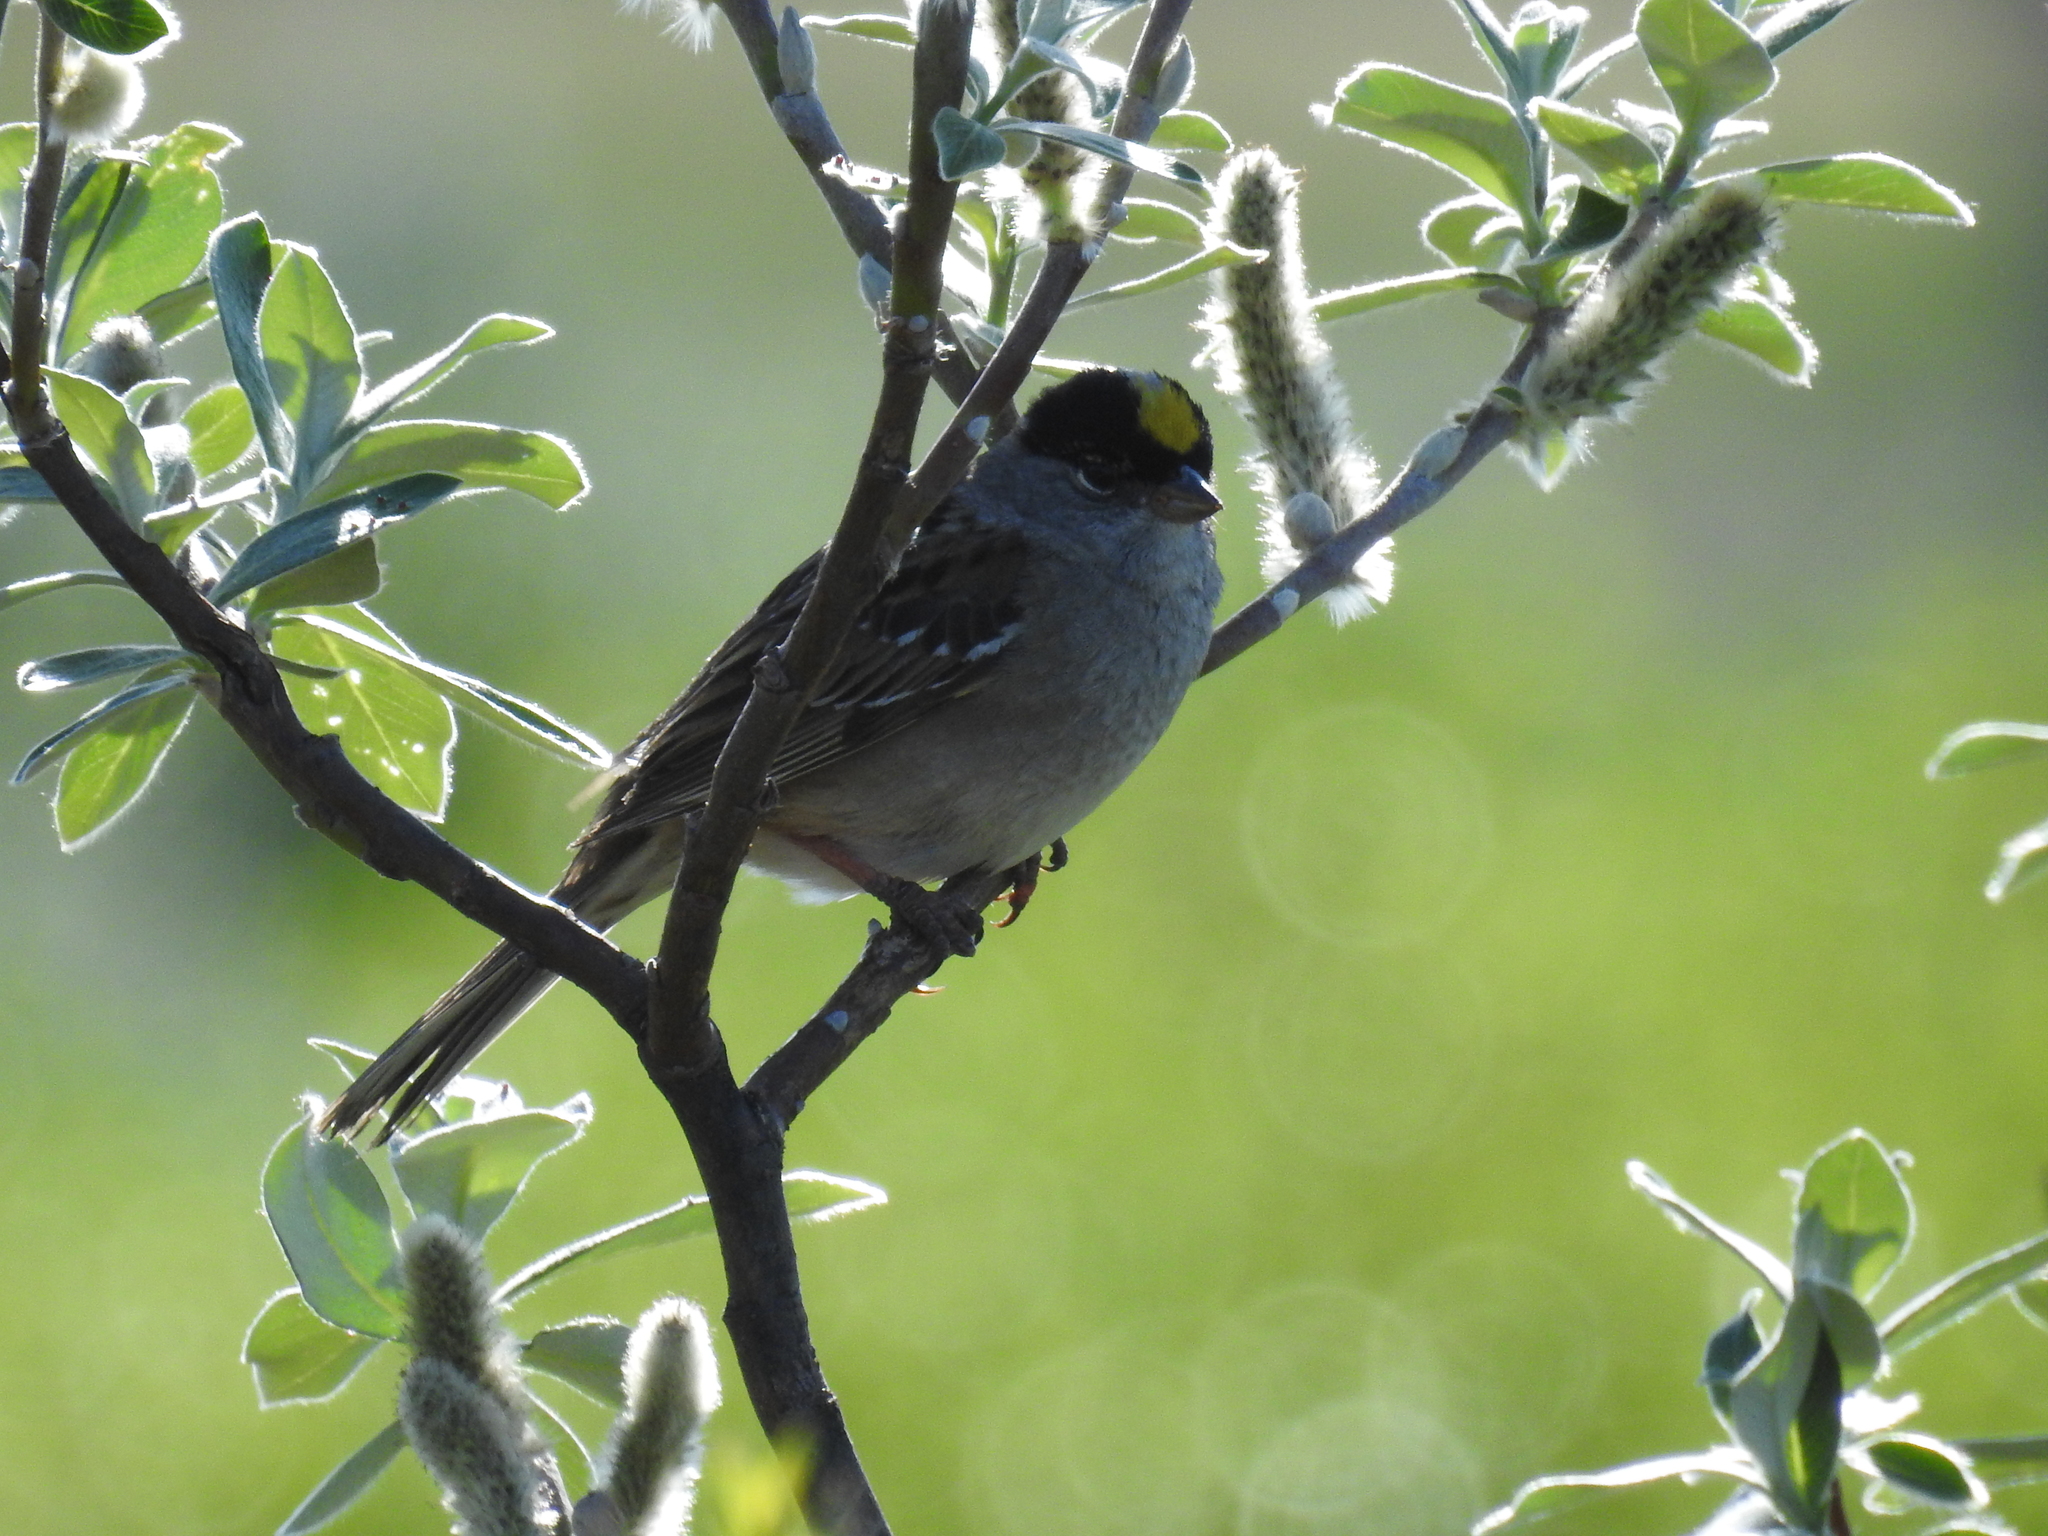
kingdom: Animalia
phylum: Chordata
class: Aves
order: Passeriformes
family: Passerellidae
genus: Zonotrichia
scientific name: Zonotrichia atricapilla
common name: Golden-crowned sparrow
